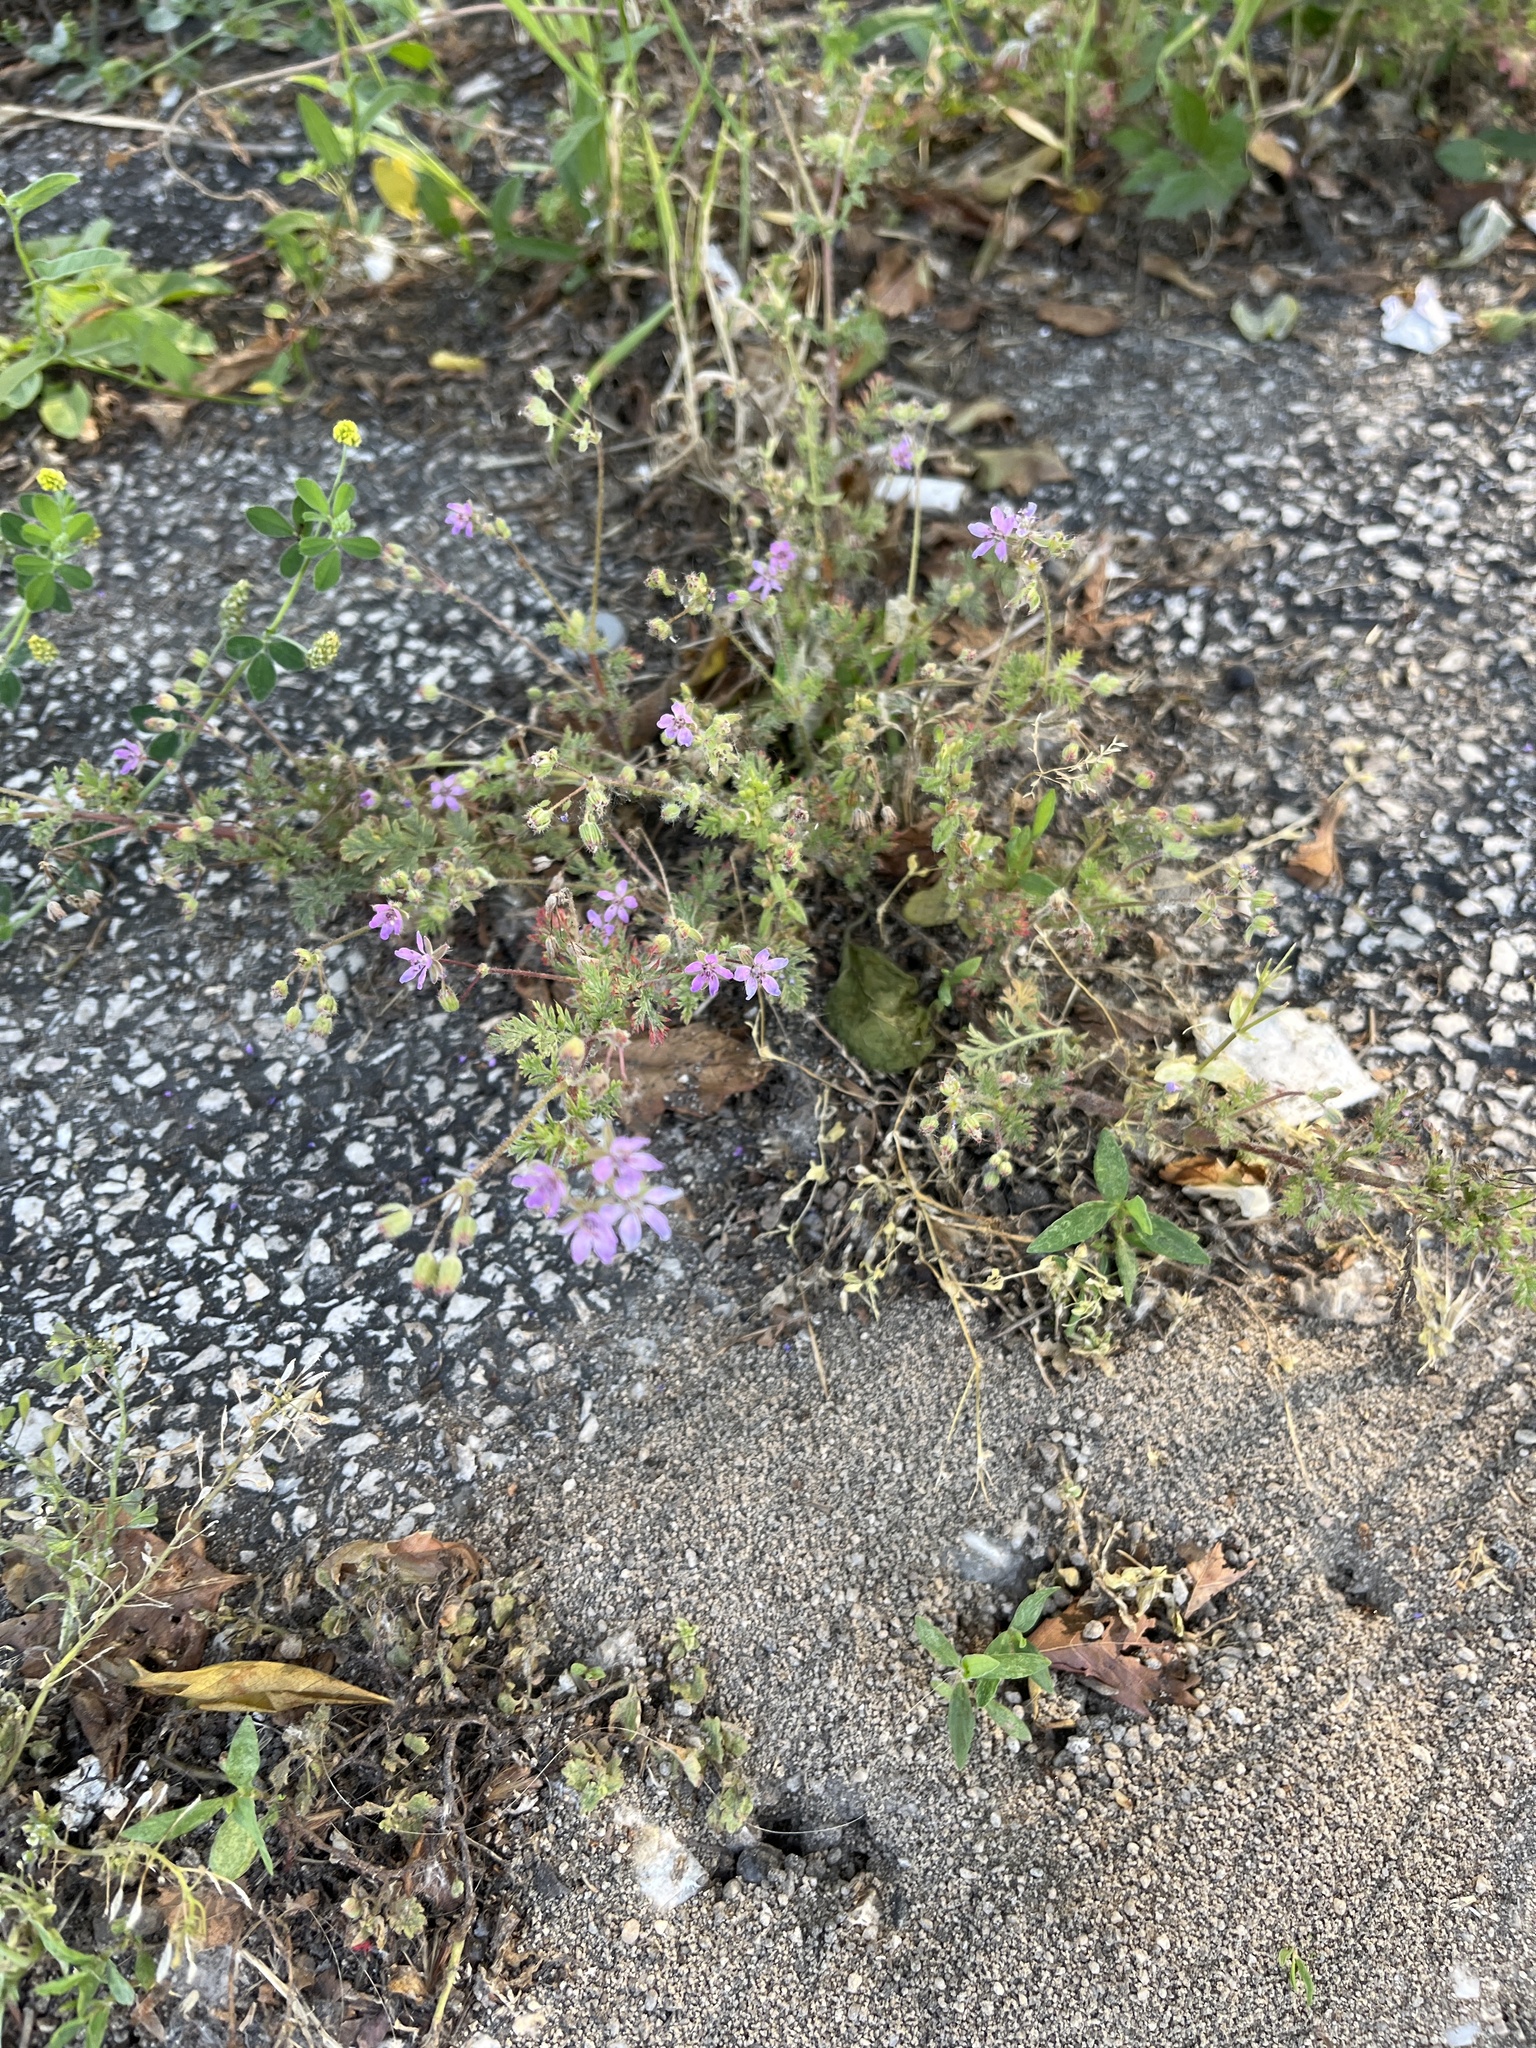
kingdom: Plantae
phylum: Tracheophyta
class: Magnoliopsida
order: Geraniales
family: Geraniaceae
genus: Erodium
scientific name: Erodium cicutarium
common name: Common stork's-bill
